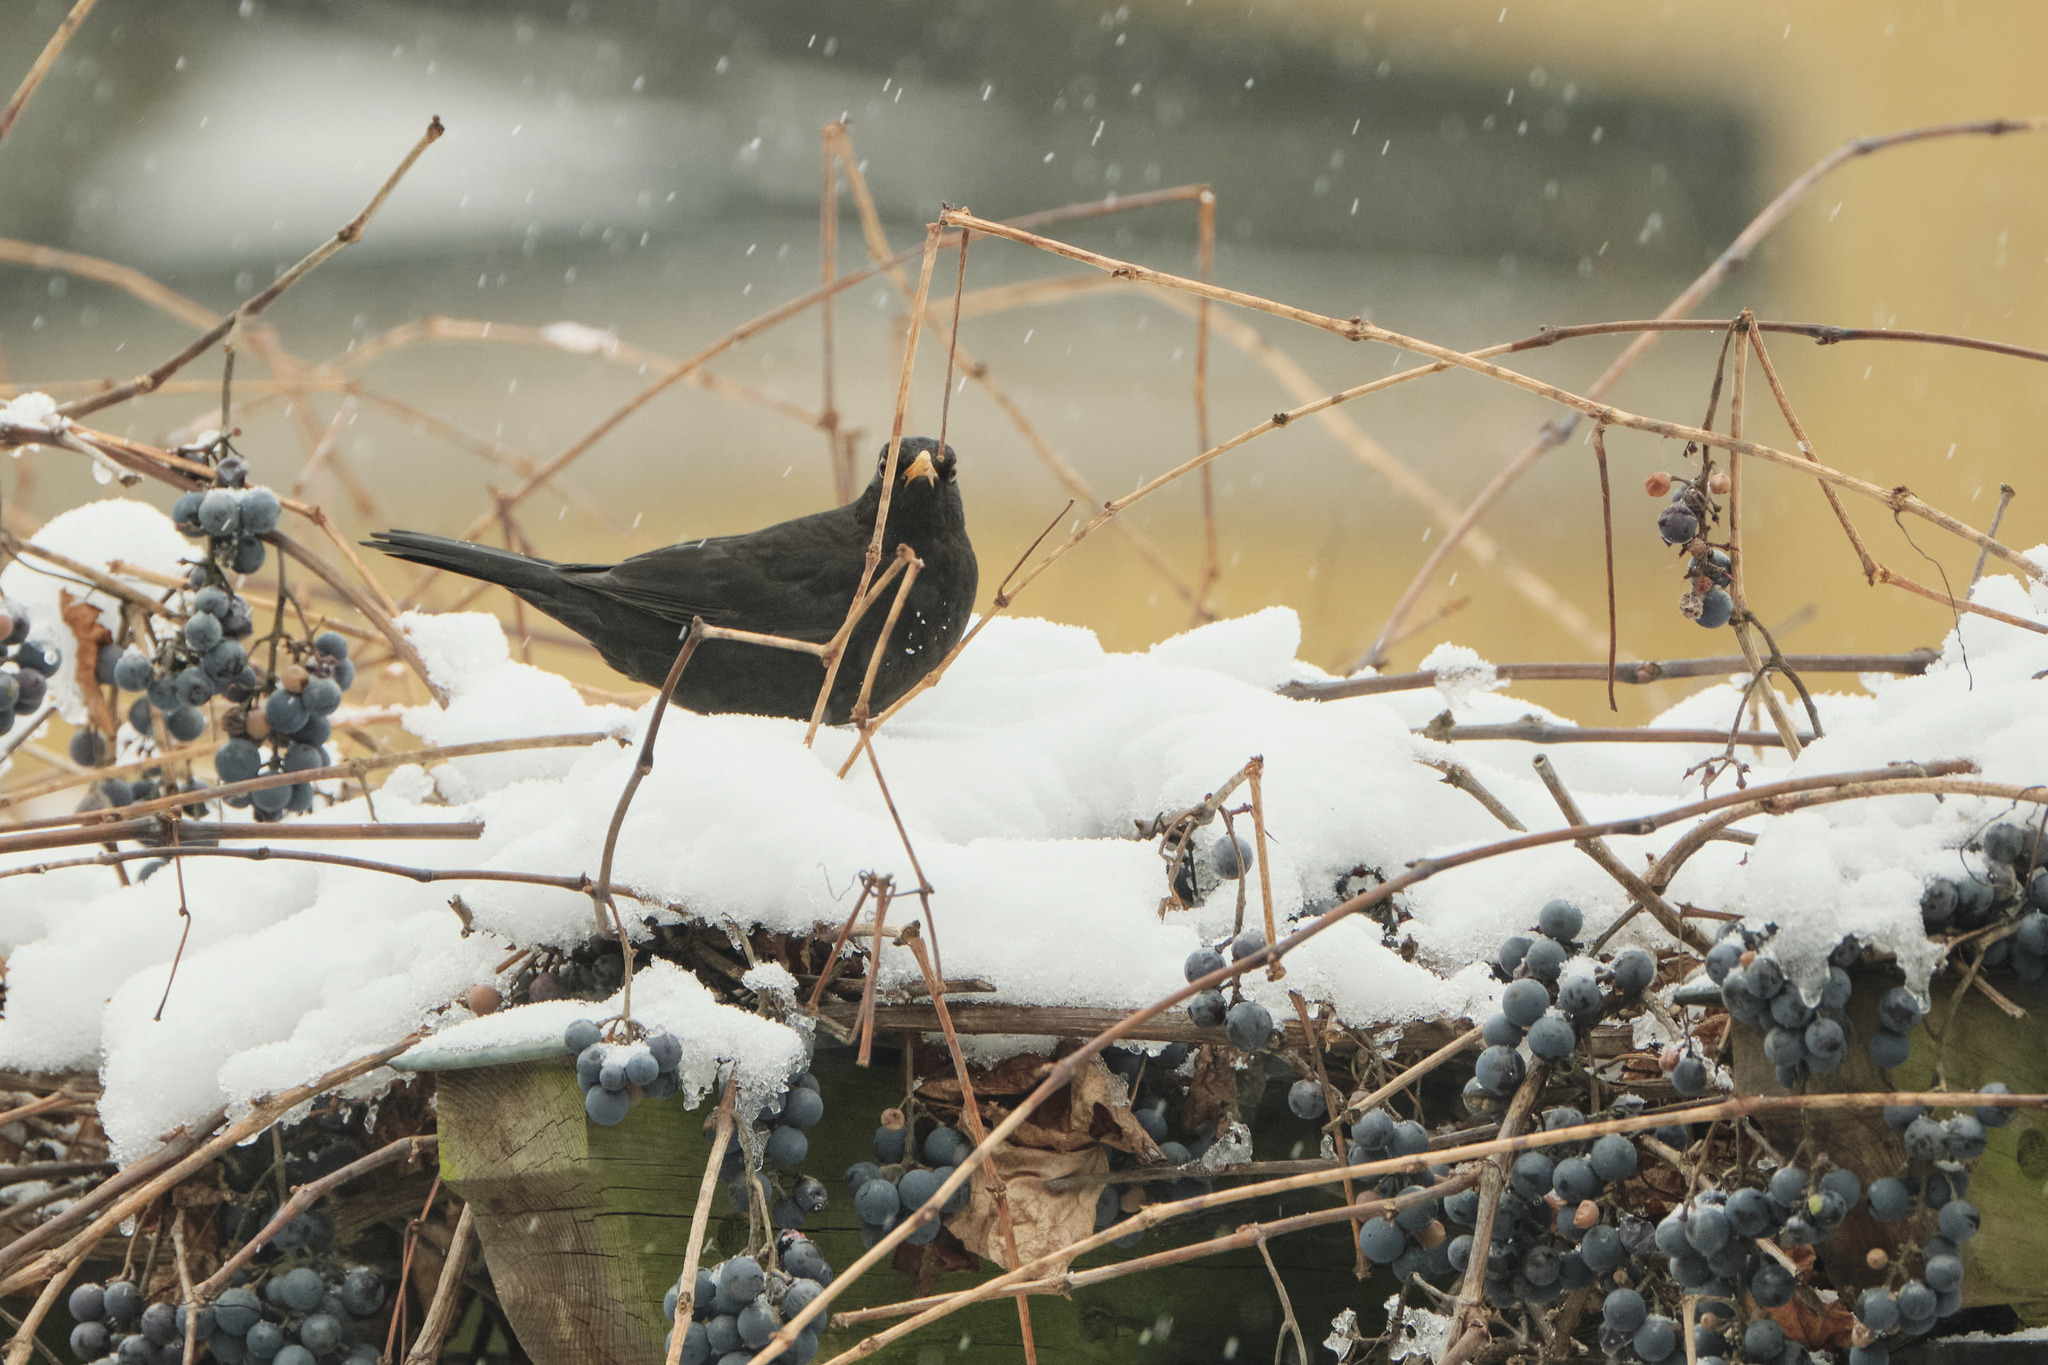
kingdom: Animalia
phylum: Chordata
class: Aves
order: Passeriformes
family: Turdidae
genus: Turdus
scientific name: Turdus merula
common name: Common blackbird
